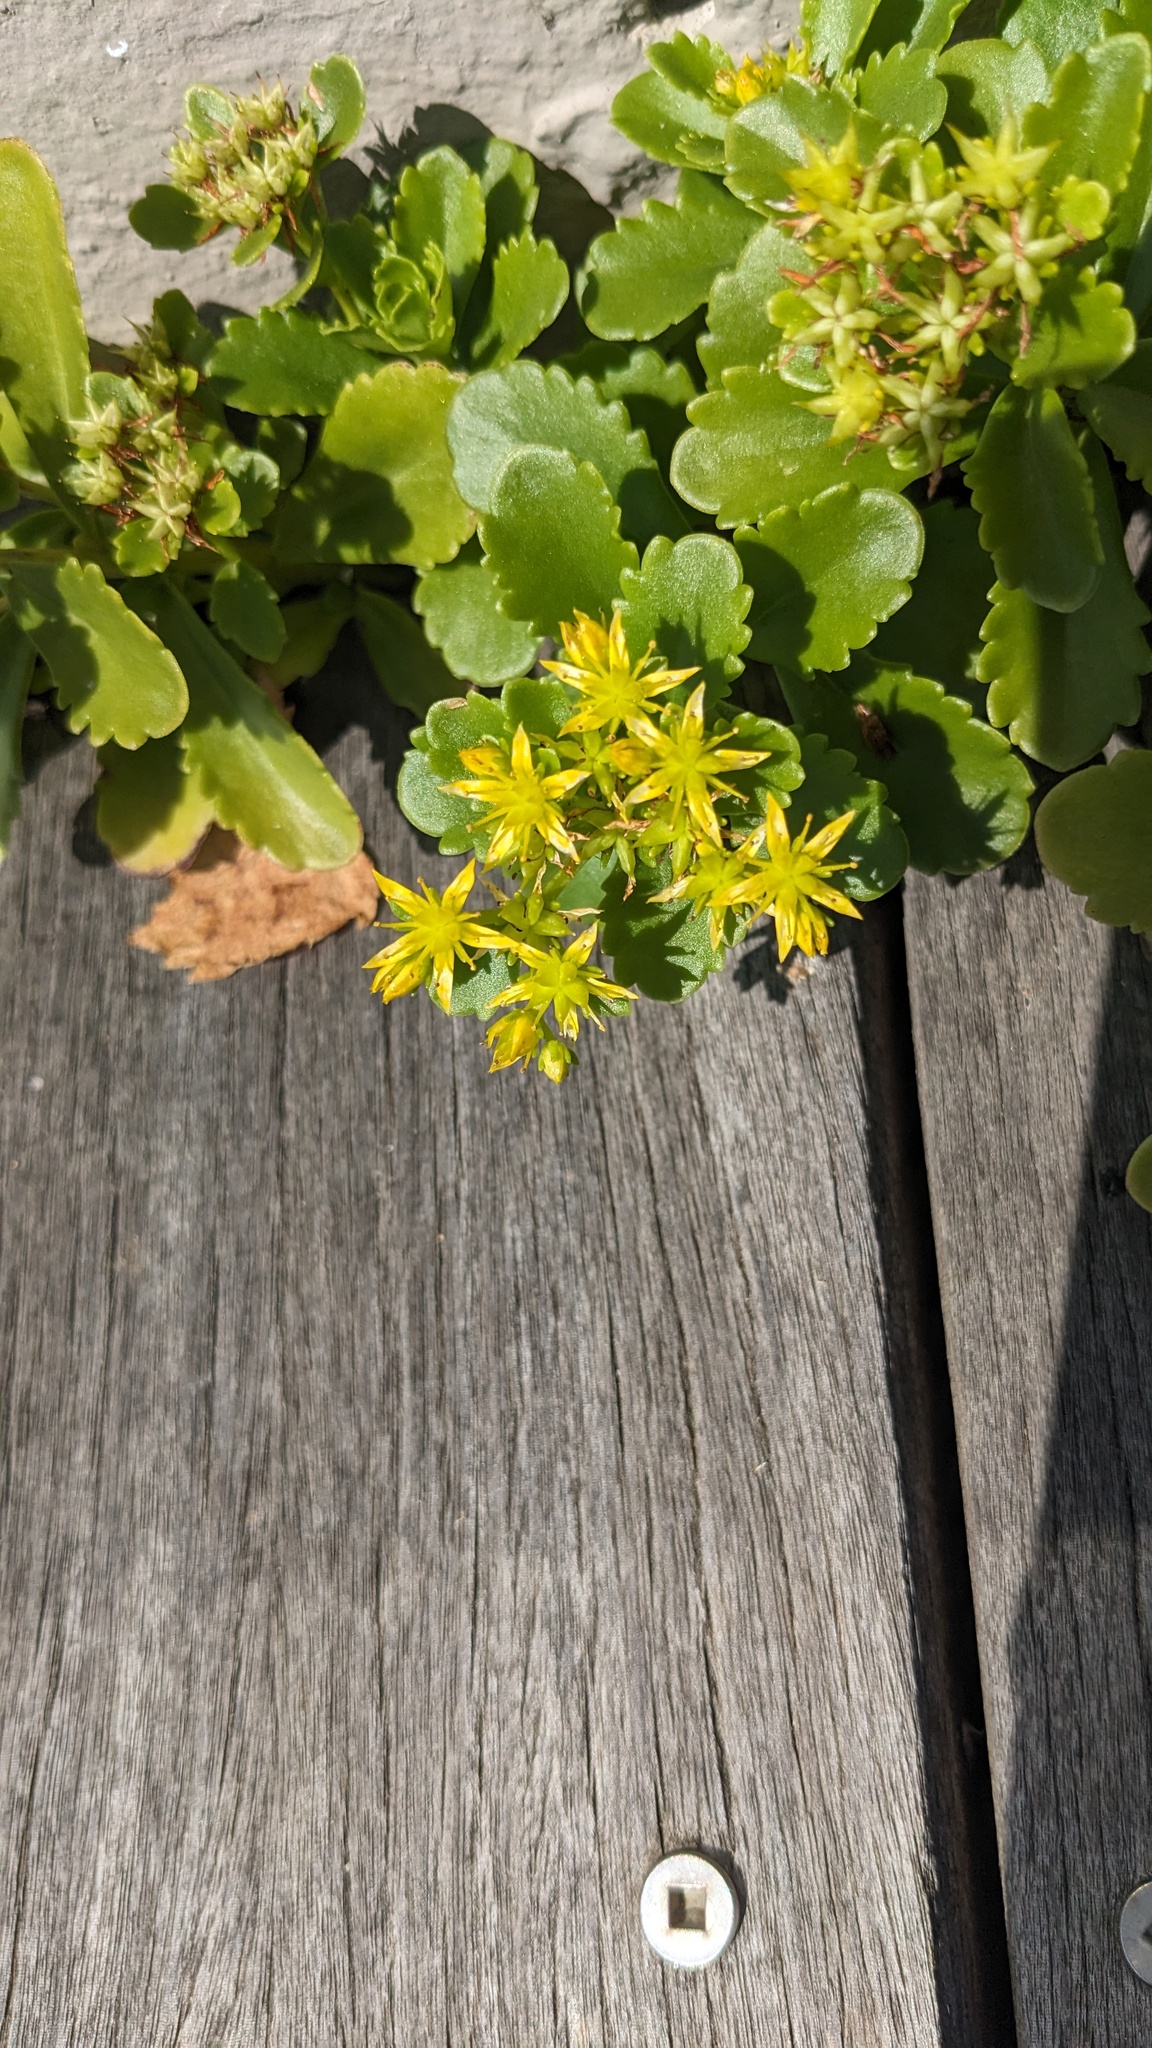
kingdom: Plantae
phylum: Tracheophyta
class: Magnoliopsida
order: Saxifragales
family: Crassulaceae
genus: Phedimus
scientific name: Phedimus ellacombeanus
